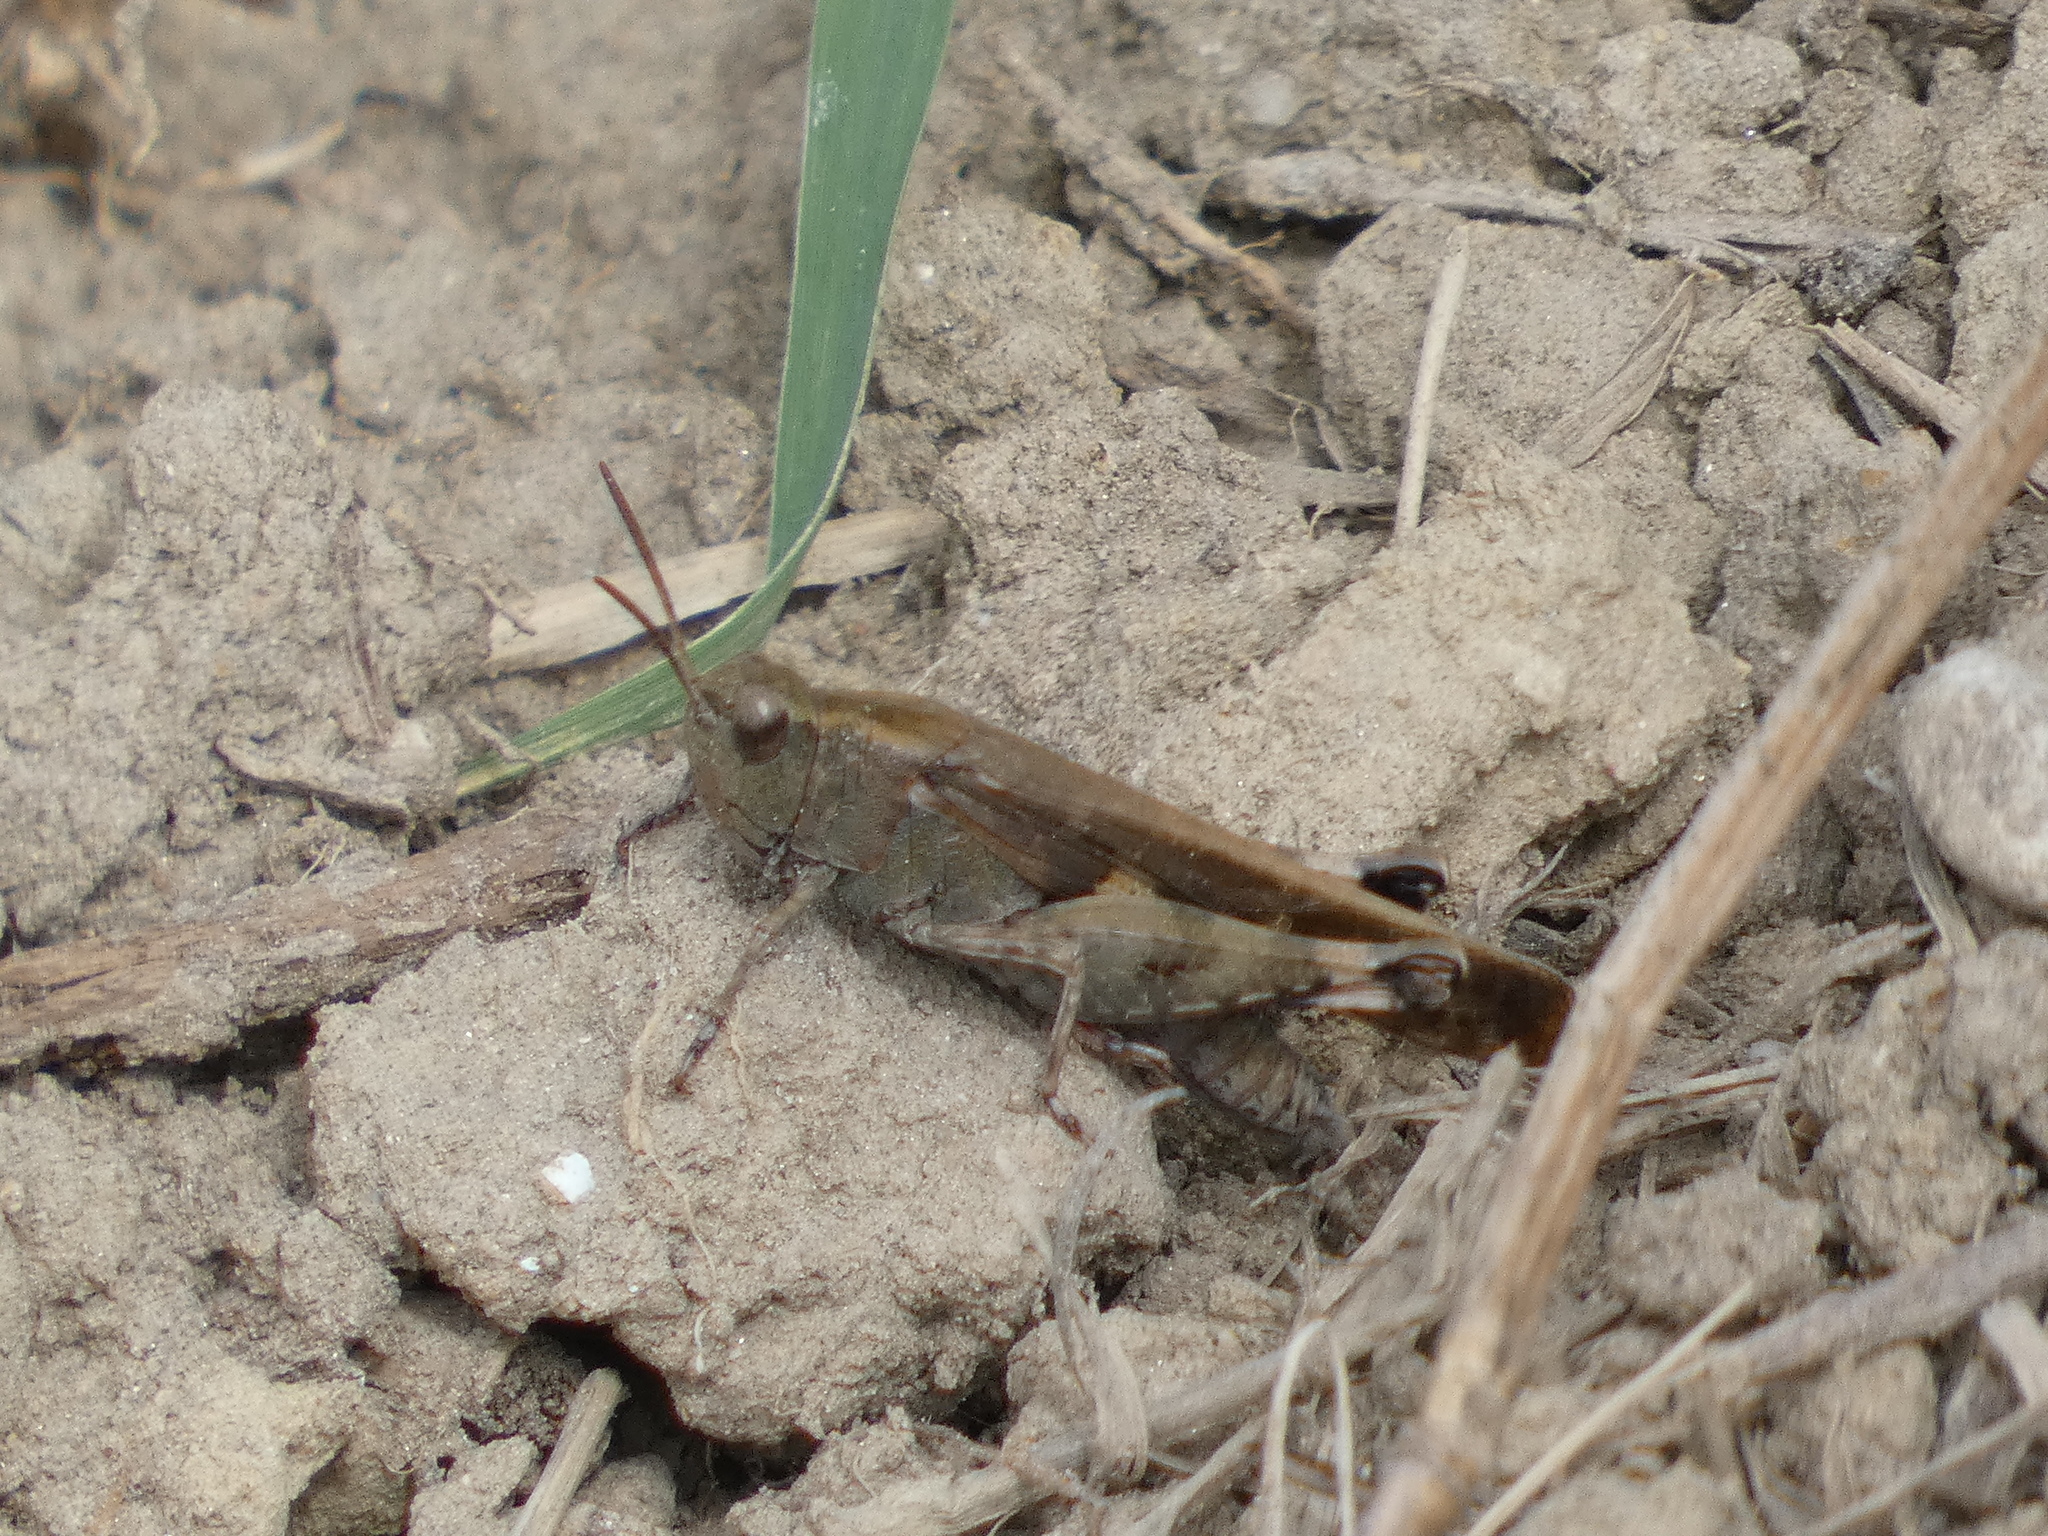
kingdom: Animalia
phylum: Arthropoda
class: Insecta
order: Orthoptera
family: Acrididae
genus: Aiolopus
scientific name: Aiolopus strepens
